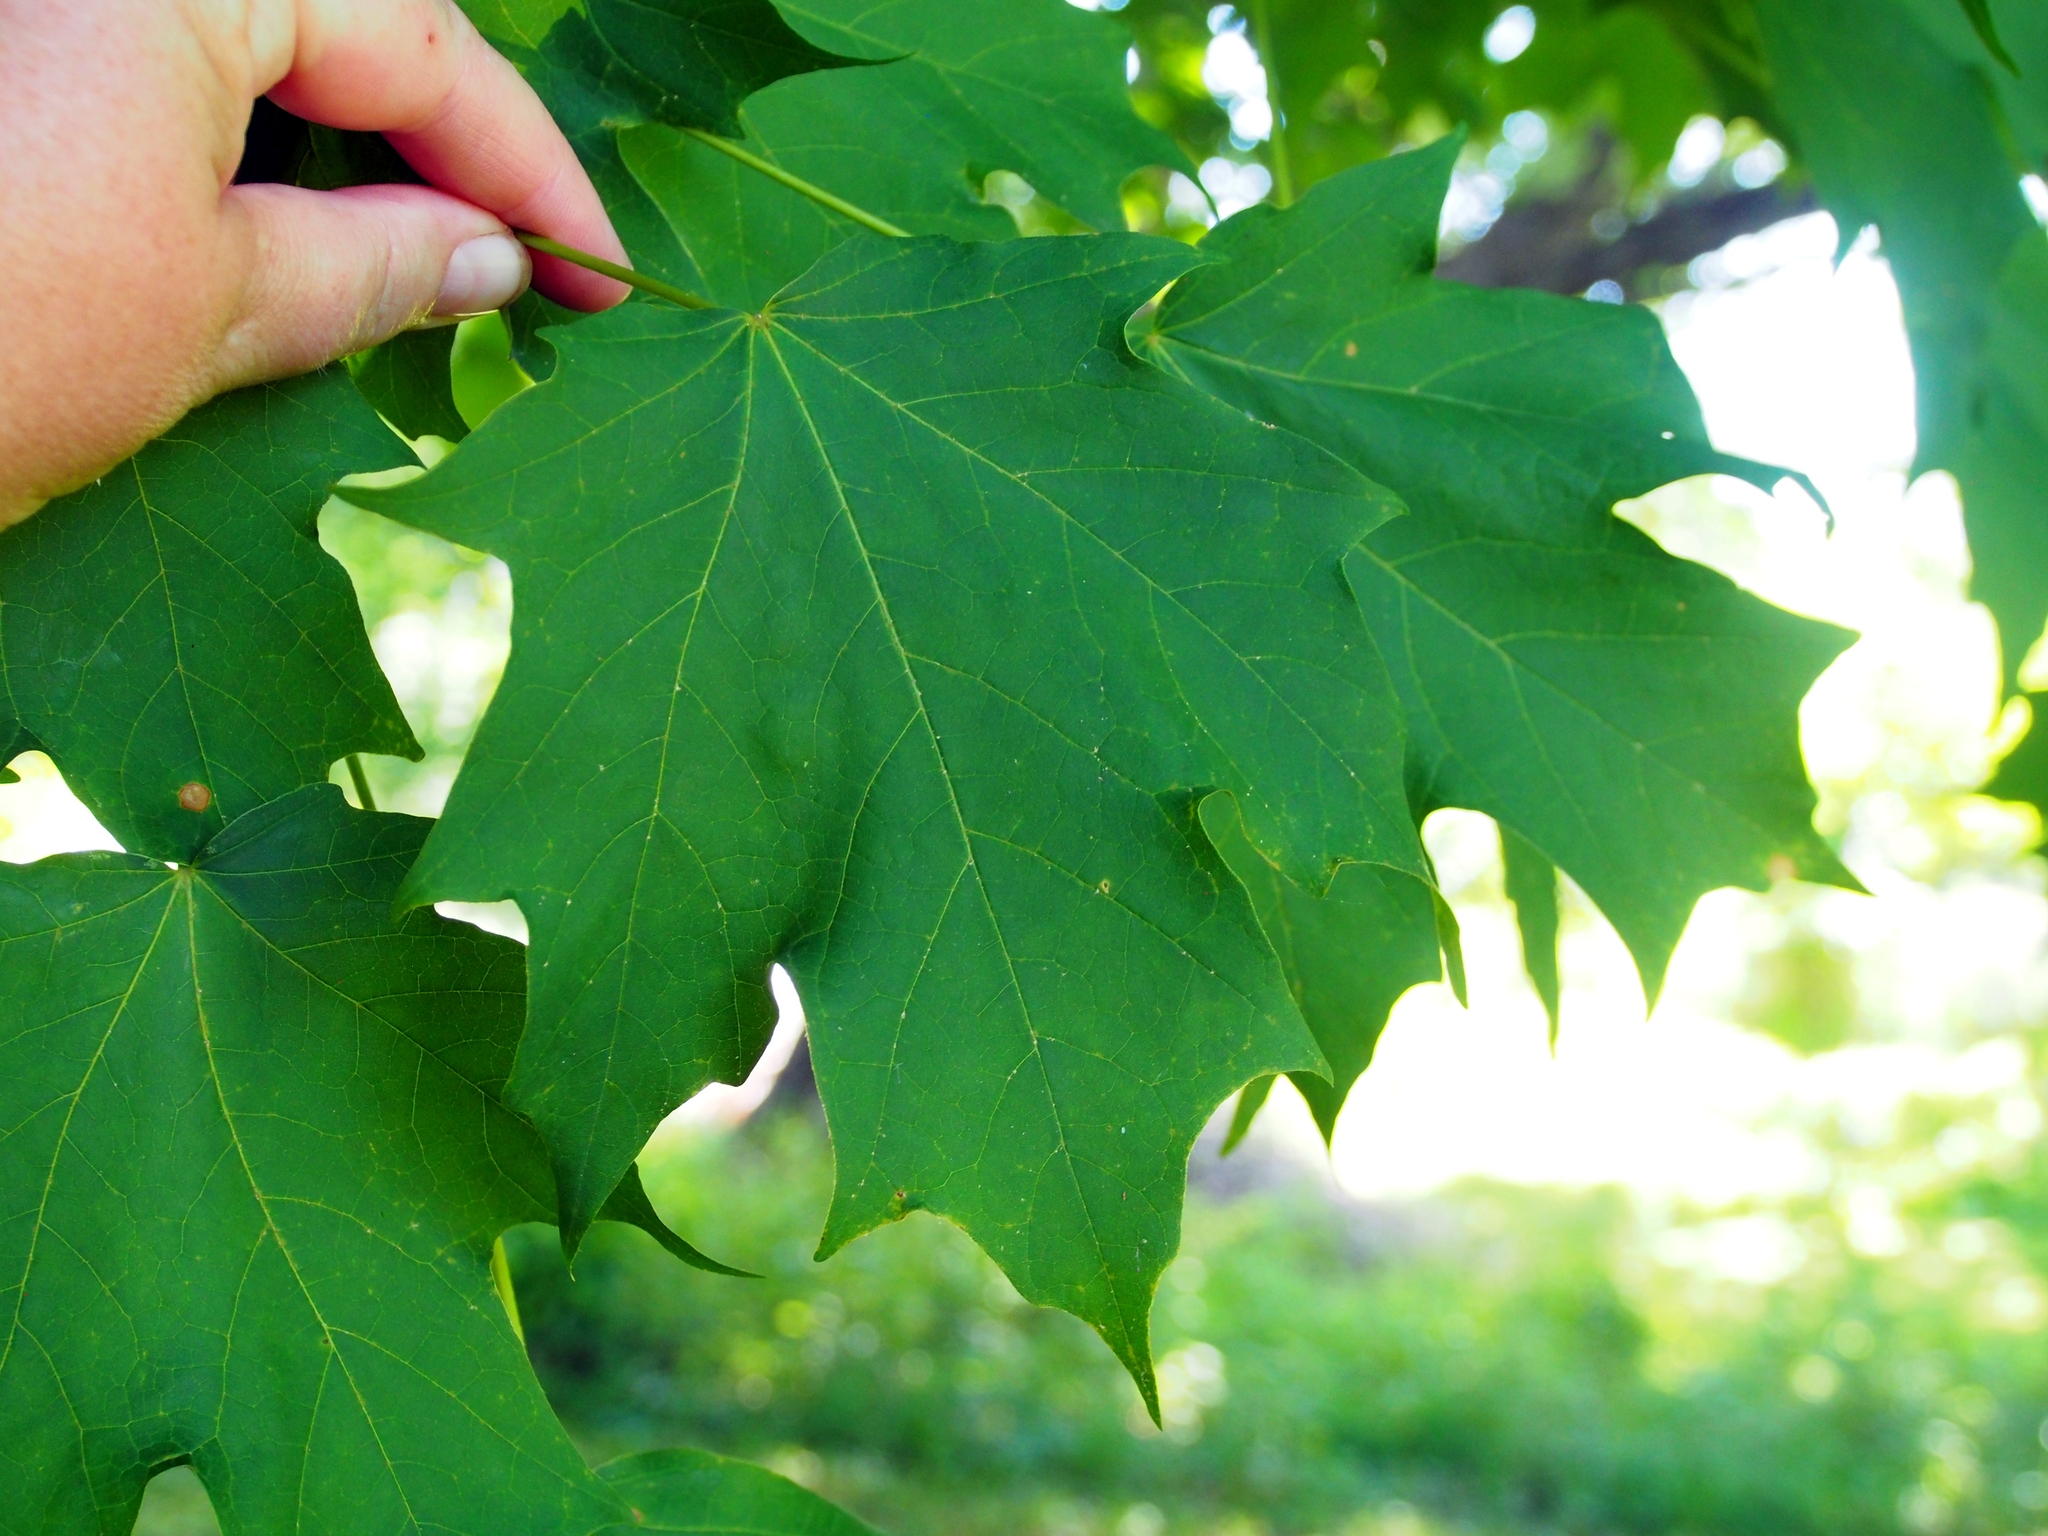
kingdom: Plantae
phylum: Tracheophyta
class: Magnoliopsida
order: Sapindales
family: Sapindaceae
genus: Acer
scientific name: Acer saccharum
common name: Sugar maple
